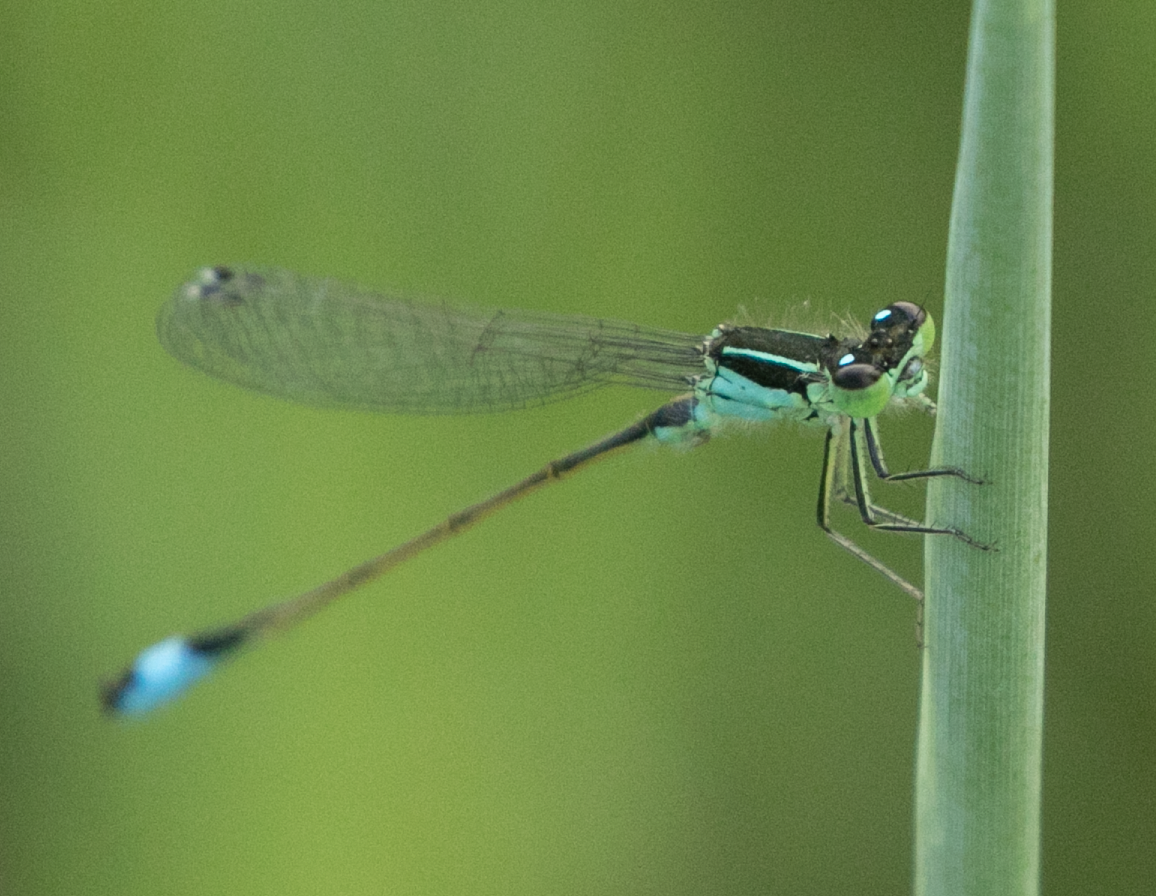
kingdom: Animalia
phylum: Arthropoda
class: Insecta
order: Odonata
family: Coenagrionidae
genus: Ischnura
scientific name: Ischnura elegans
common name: Blue-tailed damselfly
